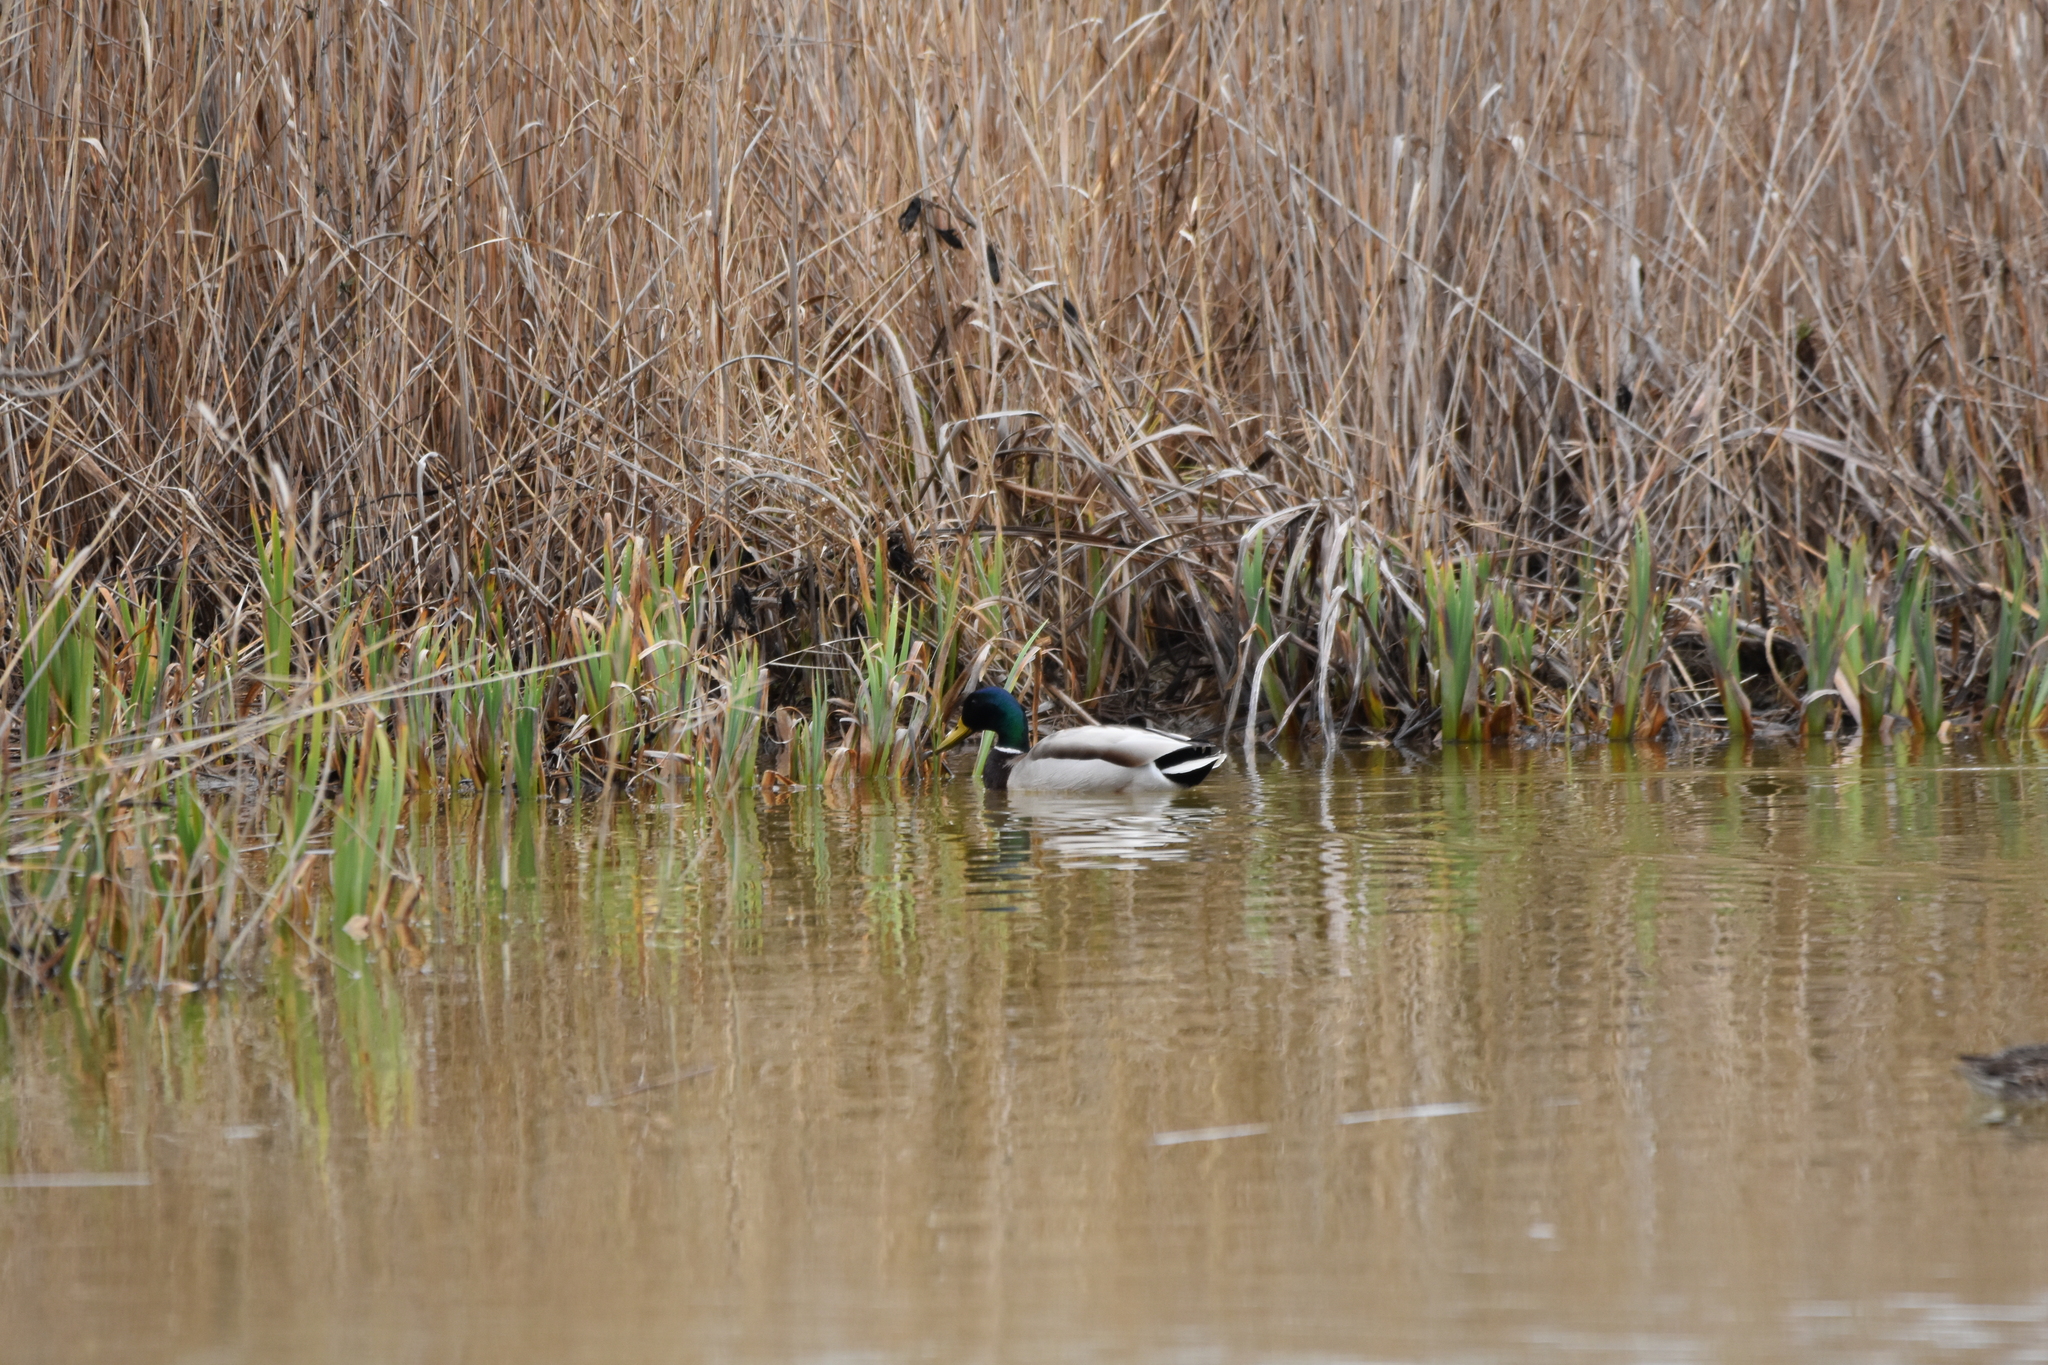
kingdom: Animalia
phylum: Chordata
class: Aves
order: Anseriformes
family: Anatidae
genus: Anas
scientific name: Anas platyrhynchos
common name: Mallard
